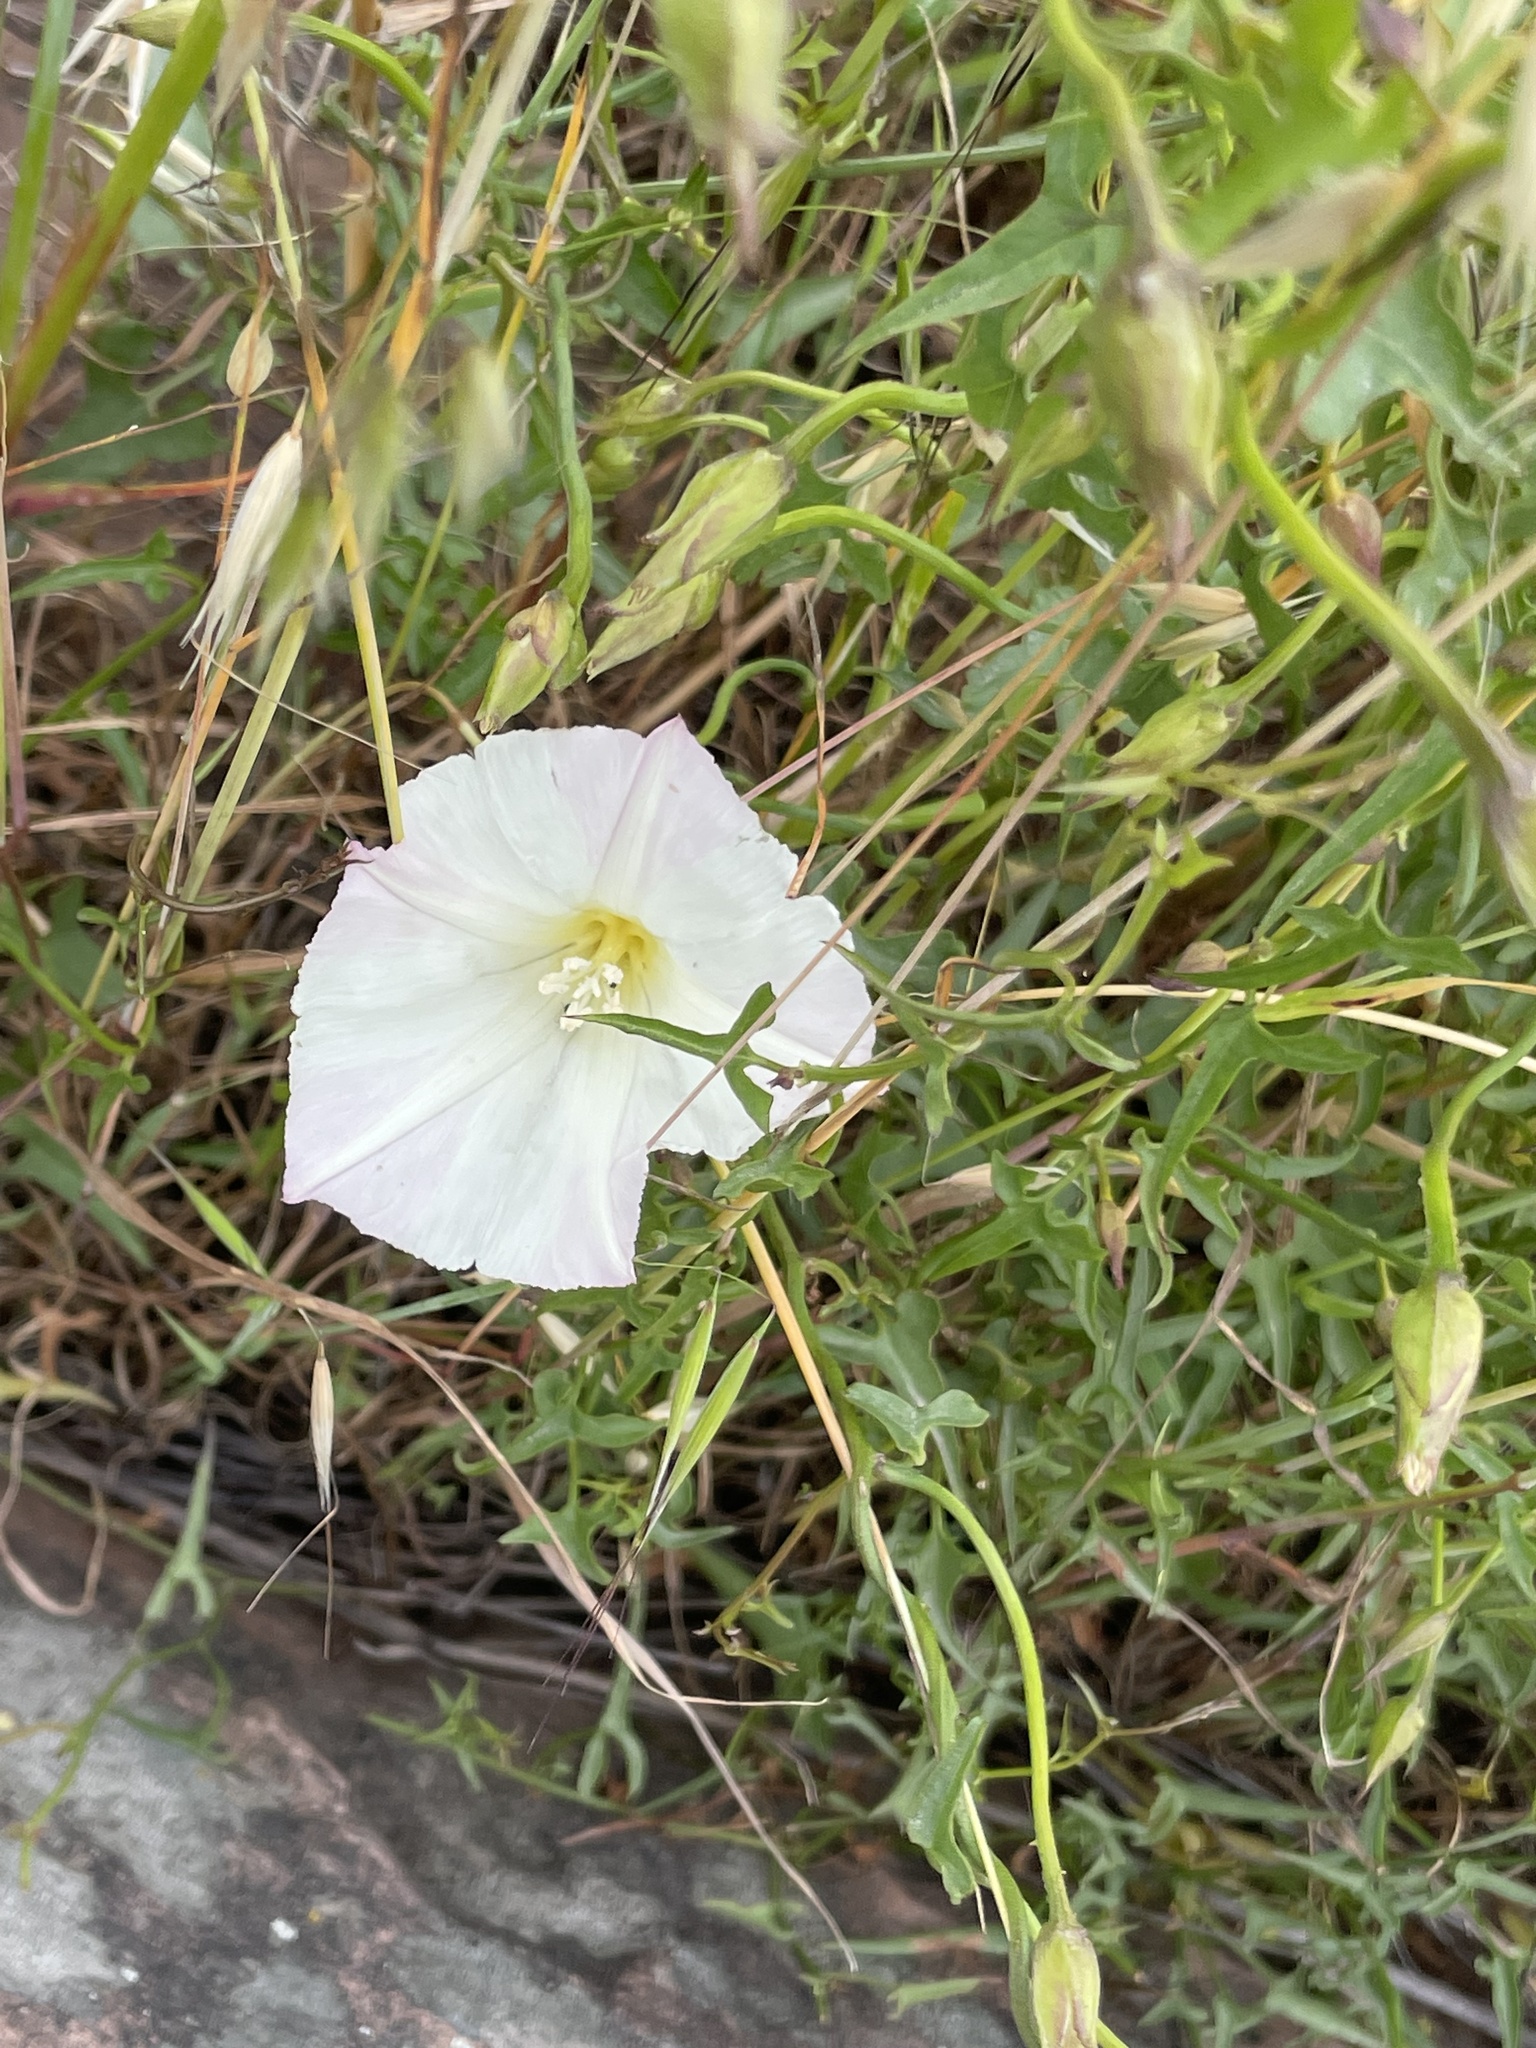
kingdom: Plantae
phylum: Tracheophyta
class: Magnoliopsida
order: Solanales
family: Convolvulaceae
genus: Calystegia
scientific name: Calystegia macrostegia
